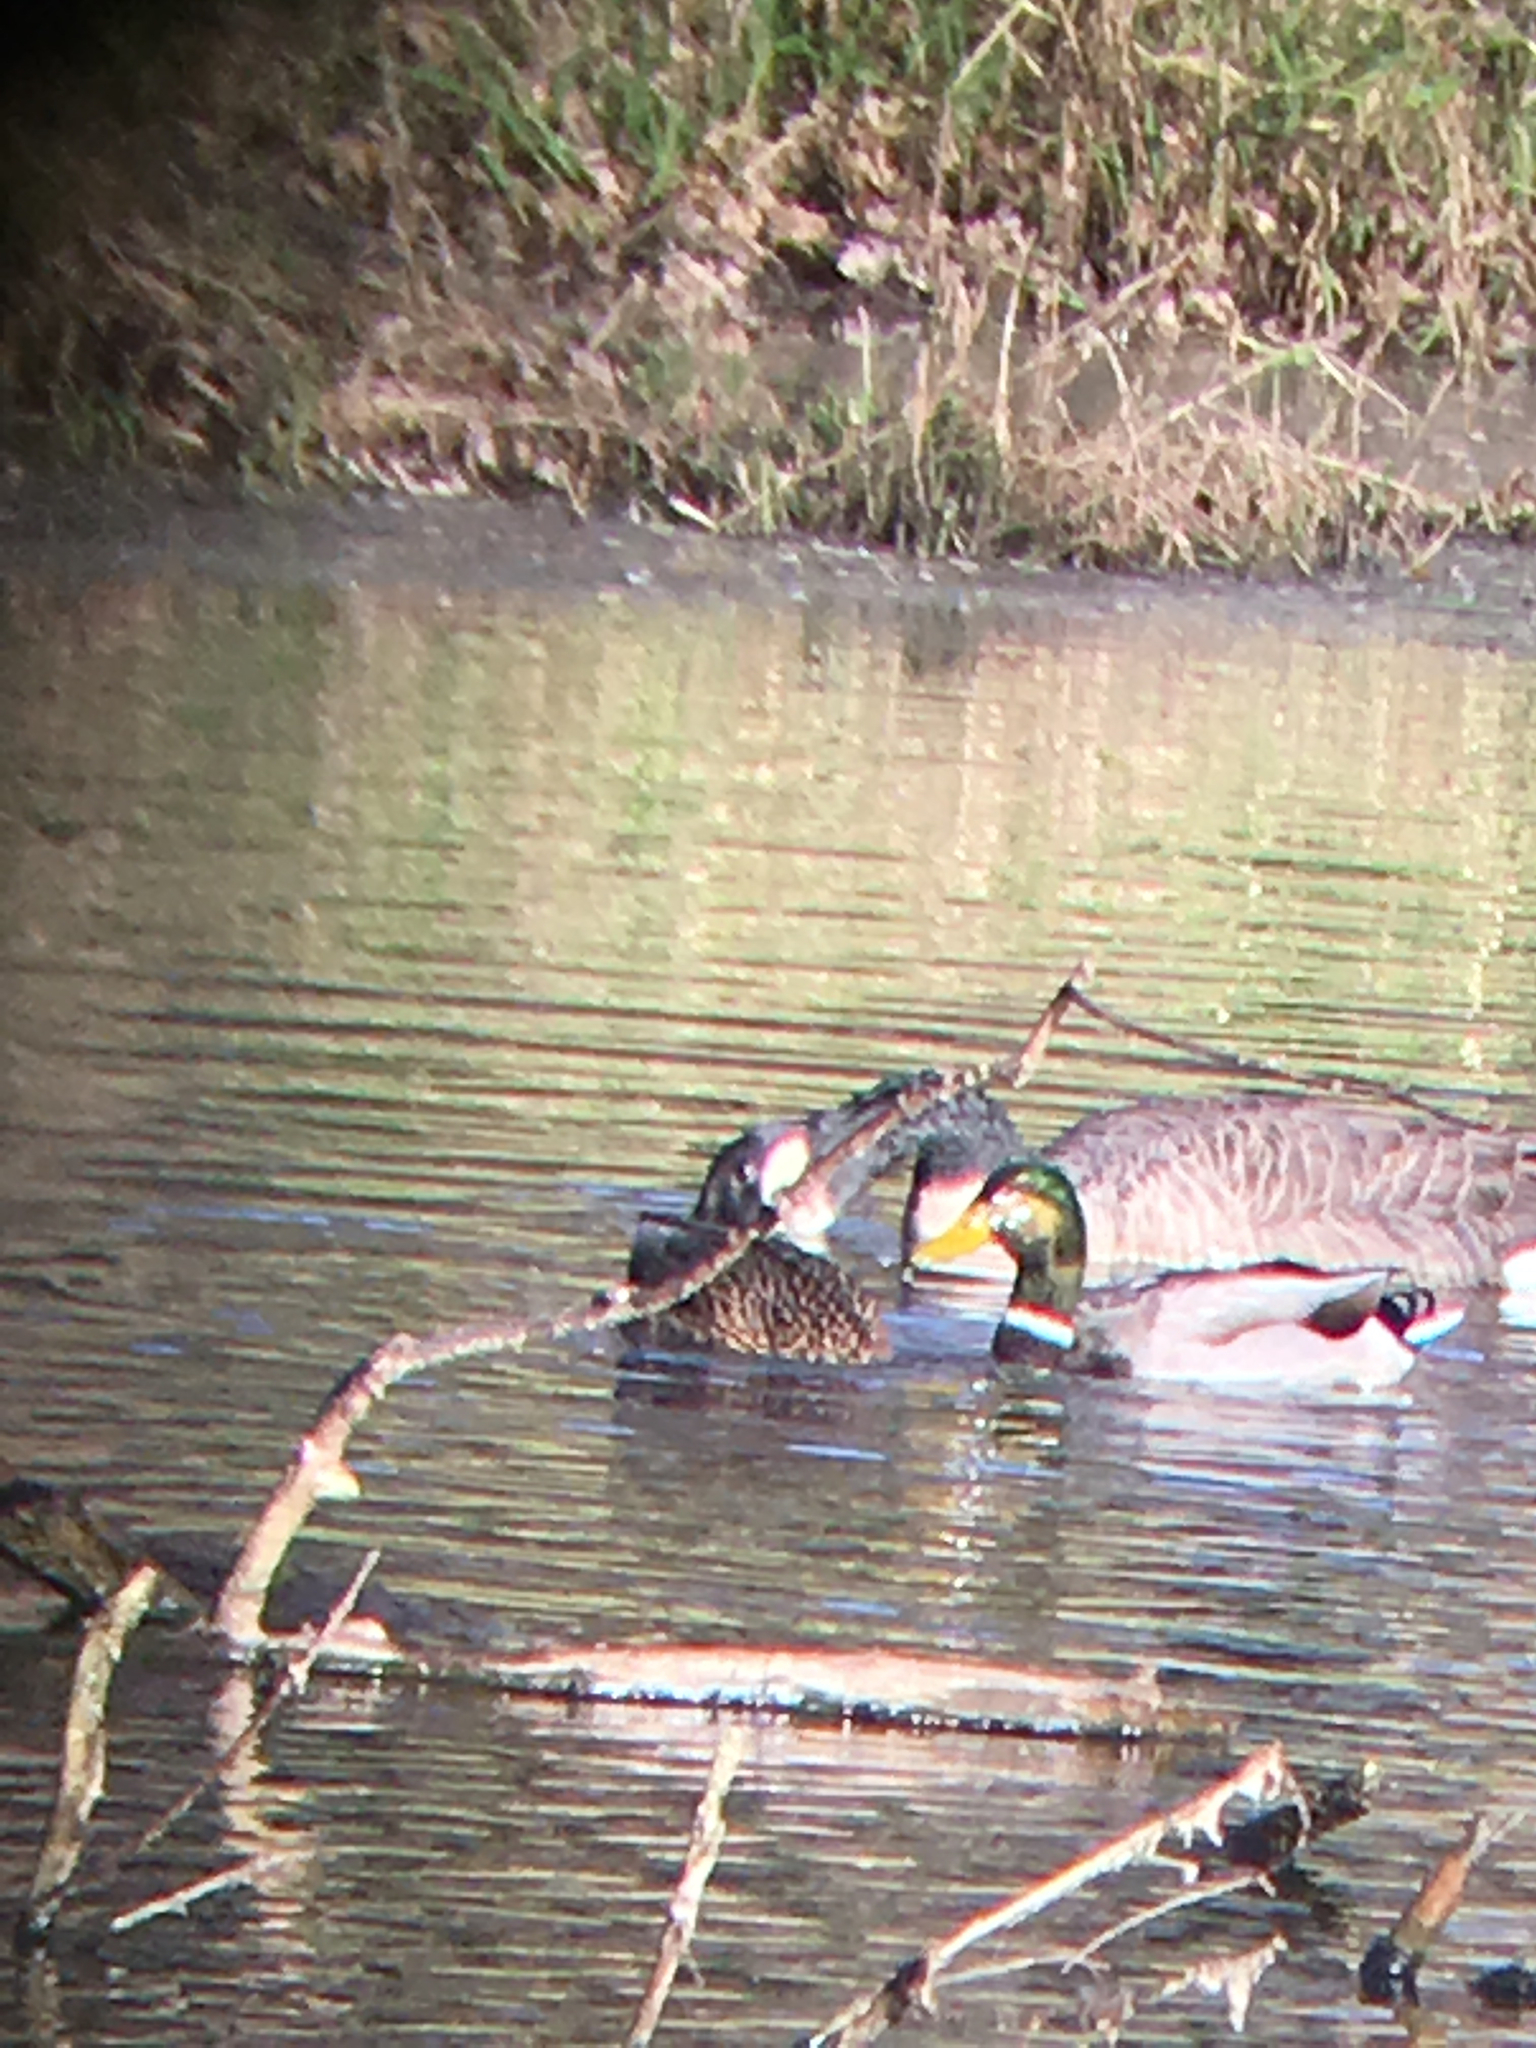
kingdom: Animalia
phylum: Chordata
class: Aves
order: Anseriformes
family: Anatidae
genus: Anas
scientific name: Anas platyrhynchos
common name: Mallard
